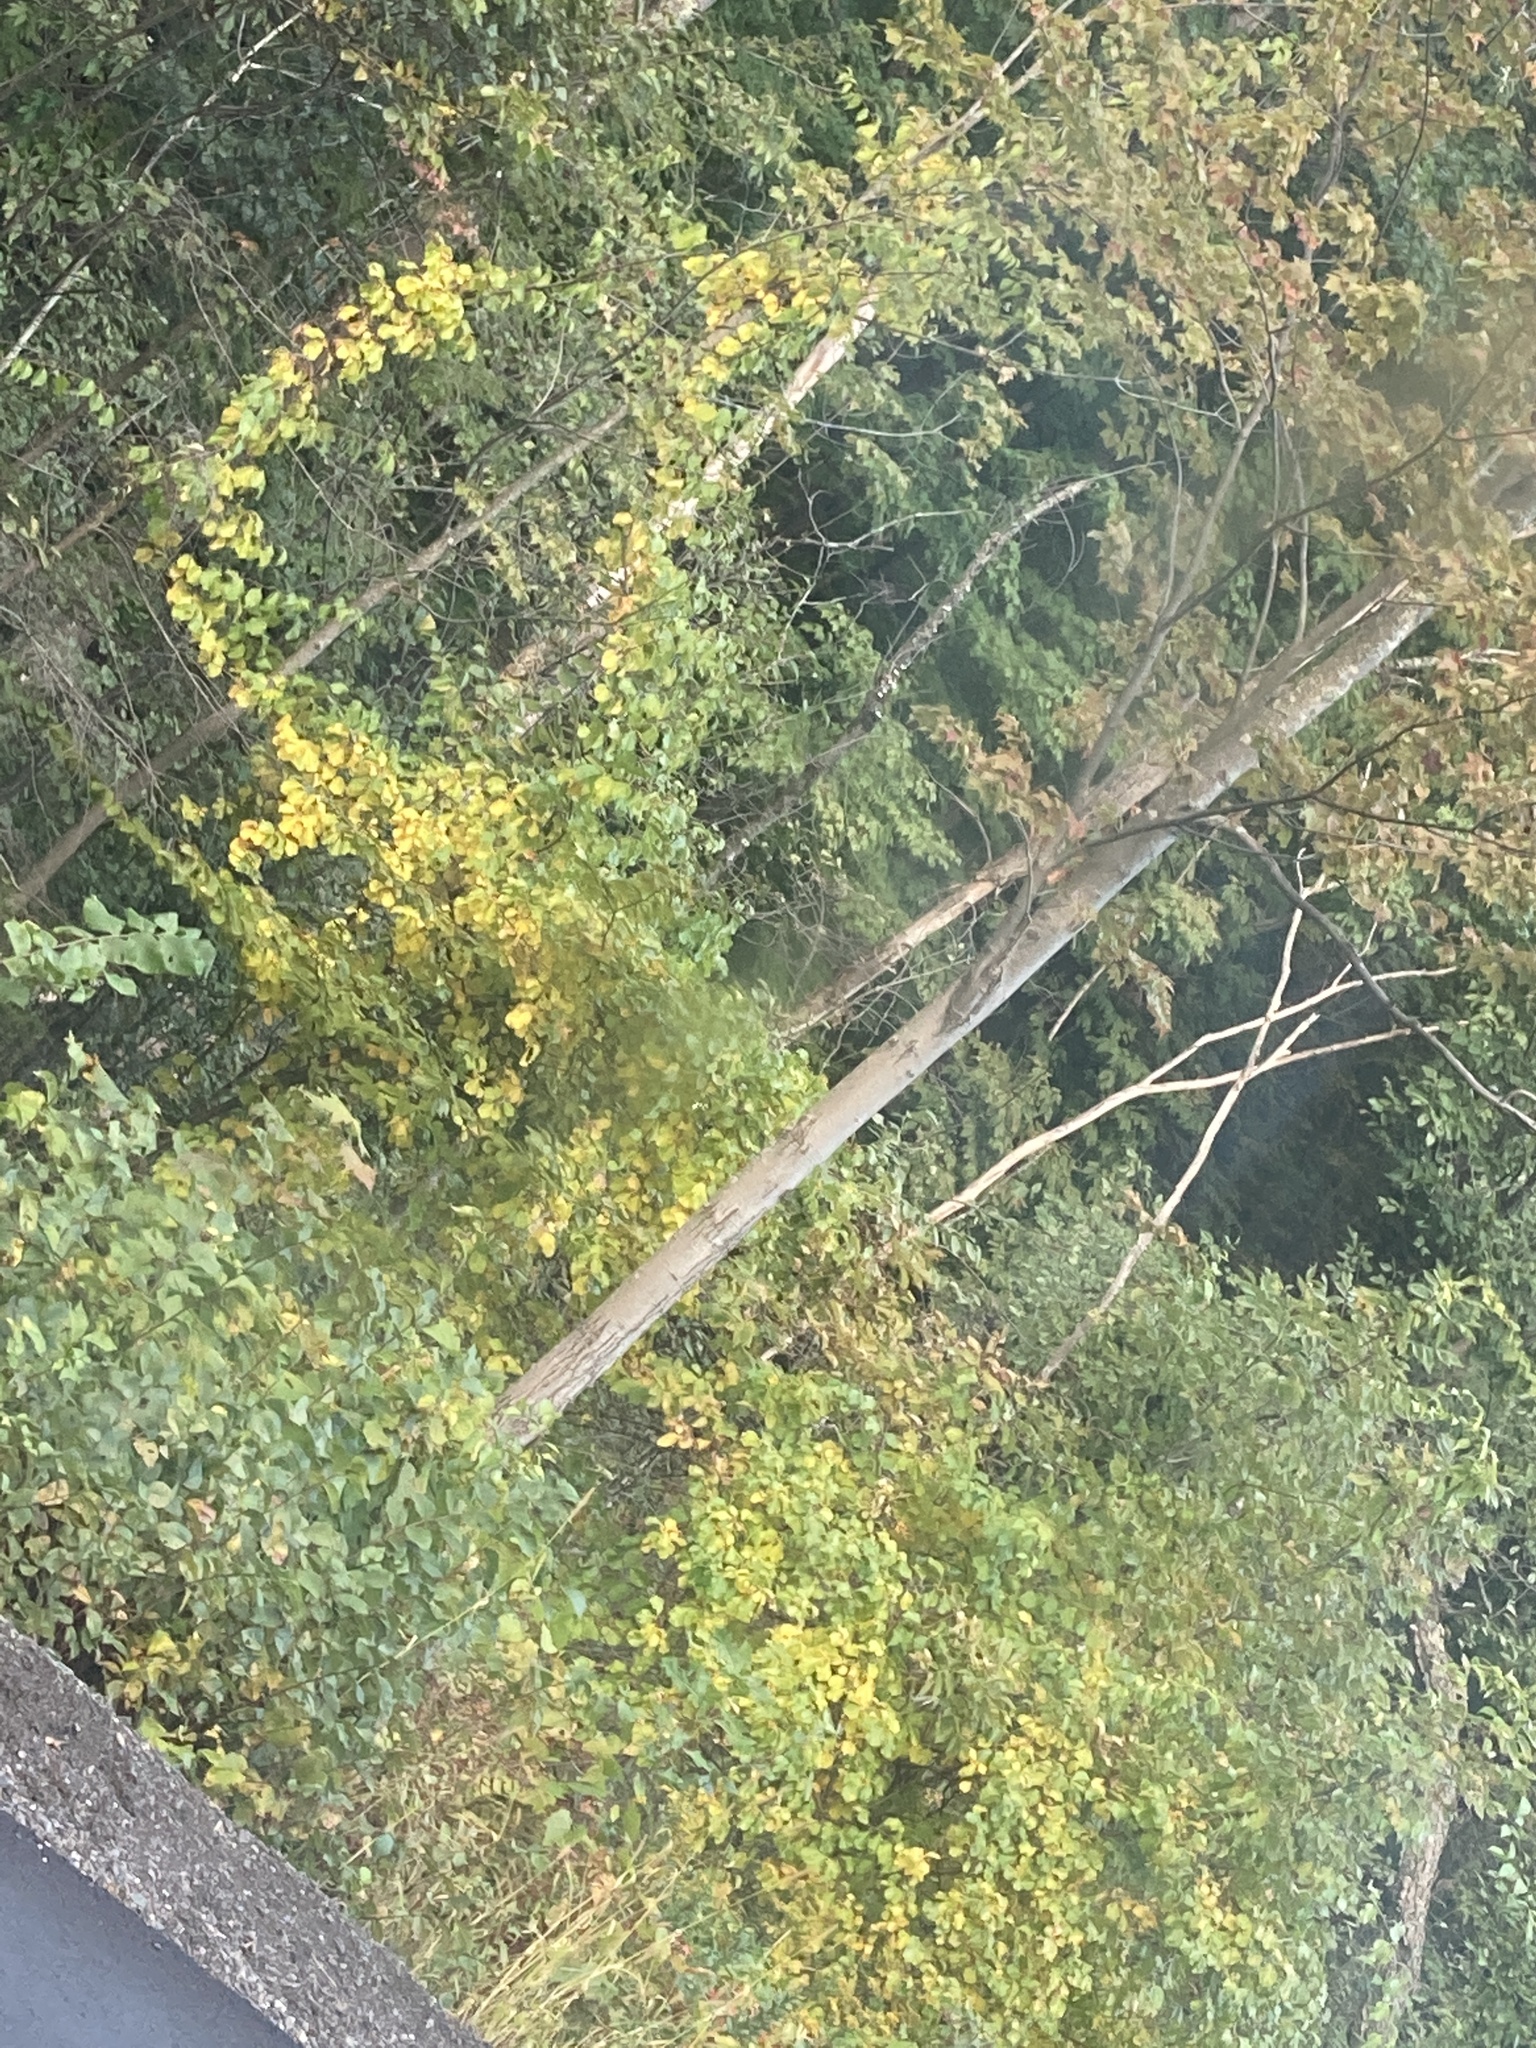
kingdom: Plantae
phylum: Tracheophyta
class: Magnoliopsida
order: Celastrales
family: Celastraceae
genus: Celastrus
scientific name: Celastrus orbiculatus
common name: Oriental bittersweet
